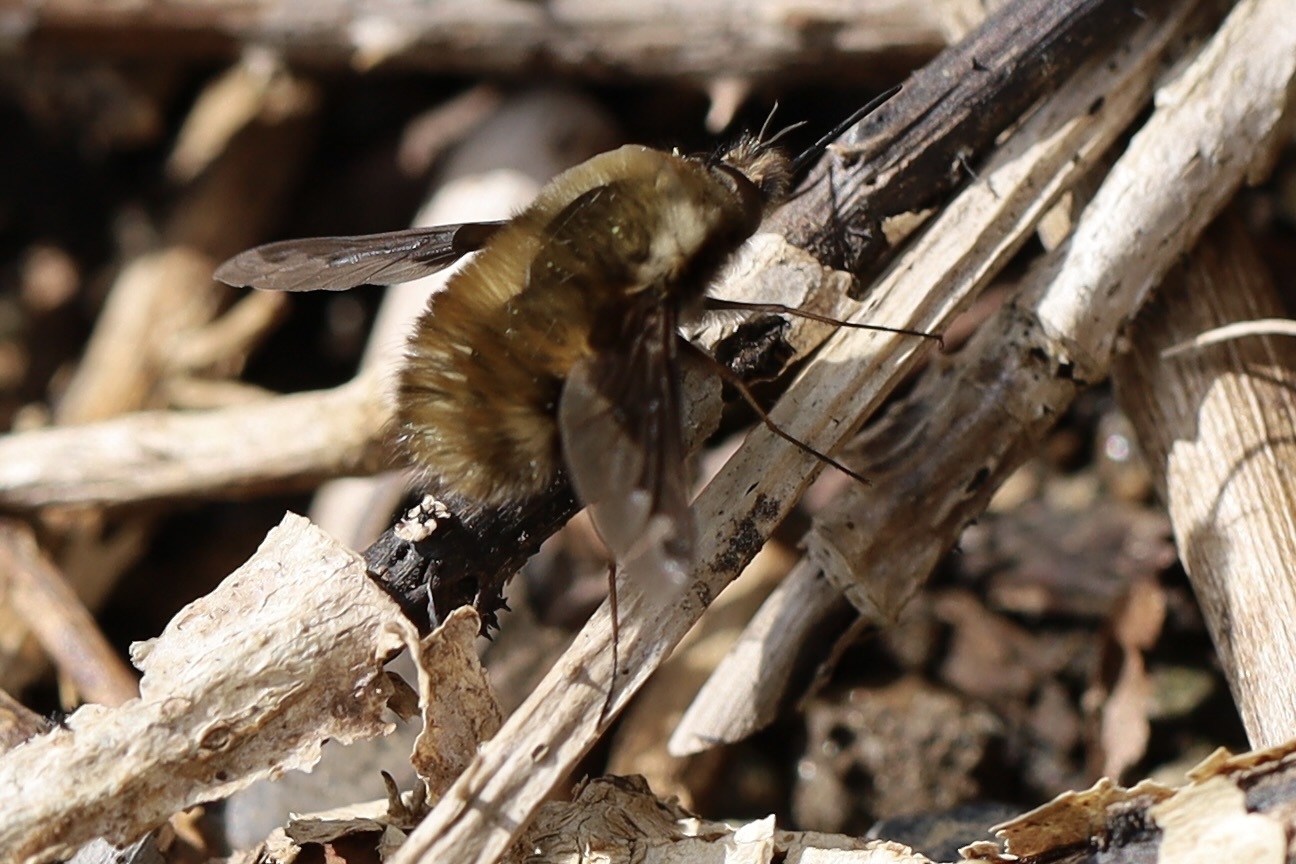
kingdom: Animalia
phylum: Arthropoda
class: Insecta
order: Diptera
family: Bombyliidae
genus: Bombylius
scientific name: Bombylius major
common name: Bee fly
